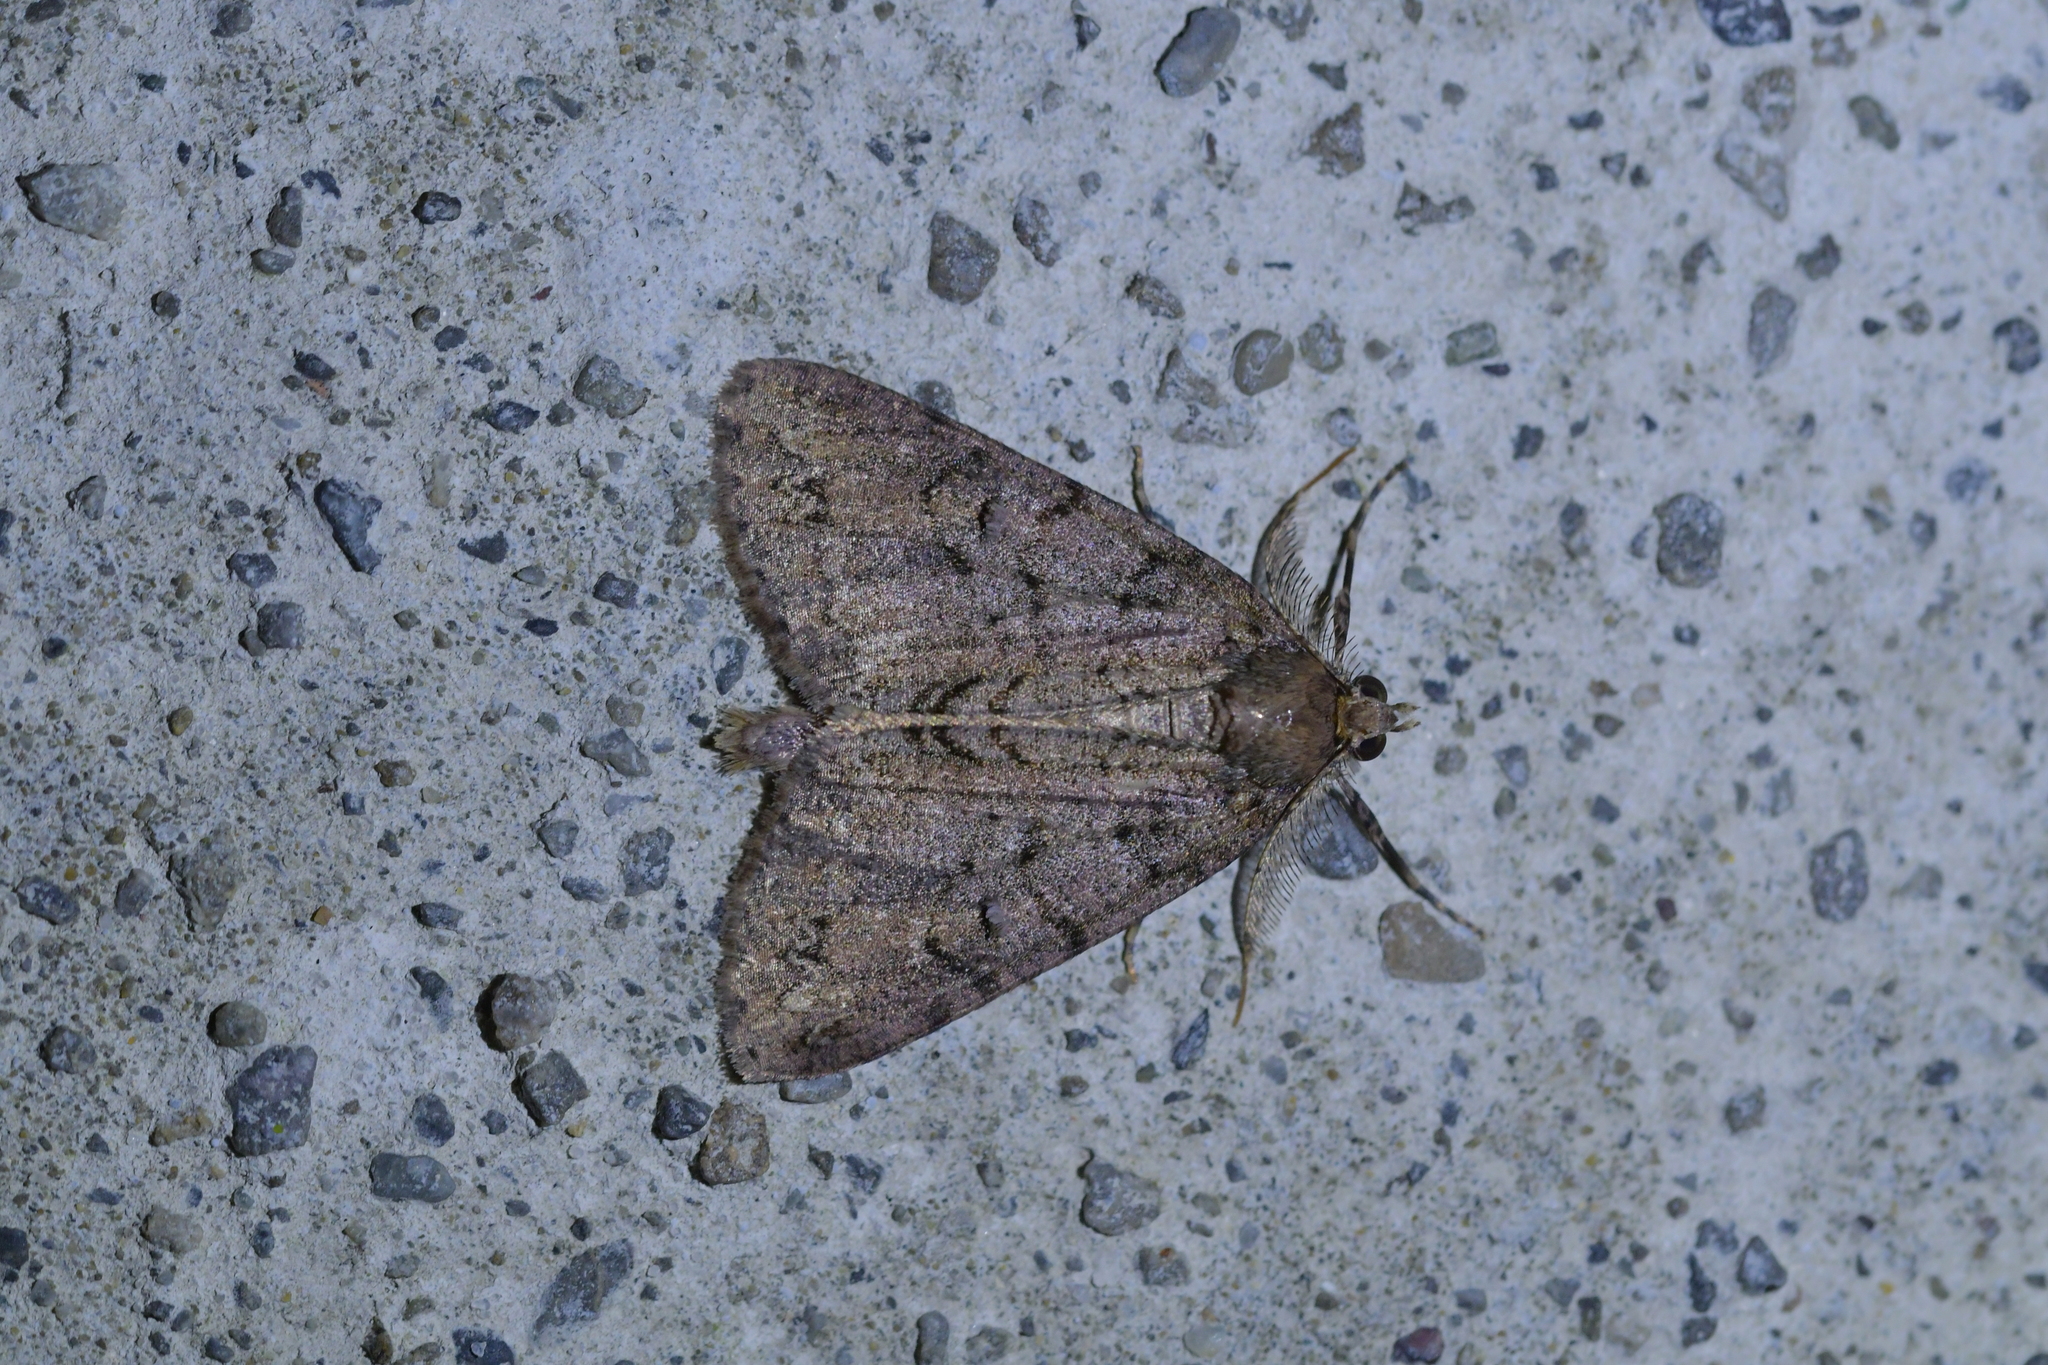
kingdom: Animalia
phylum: Arthropoda
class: Insecta
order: Lepidoptera
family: Geometridae
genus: Pseudocoremia
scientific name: Pseudocoremia suavis
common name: Common forest looper
